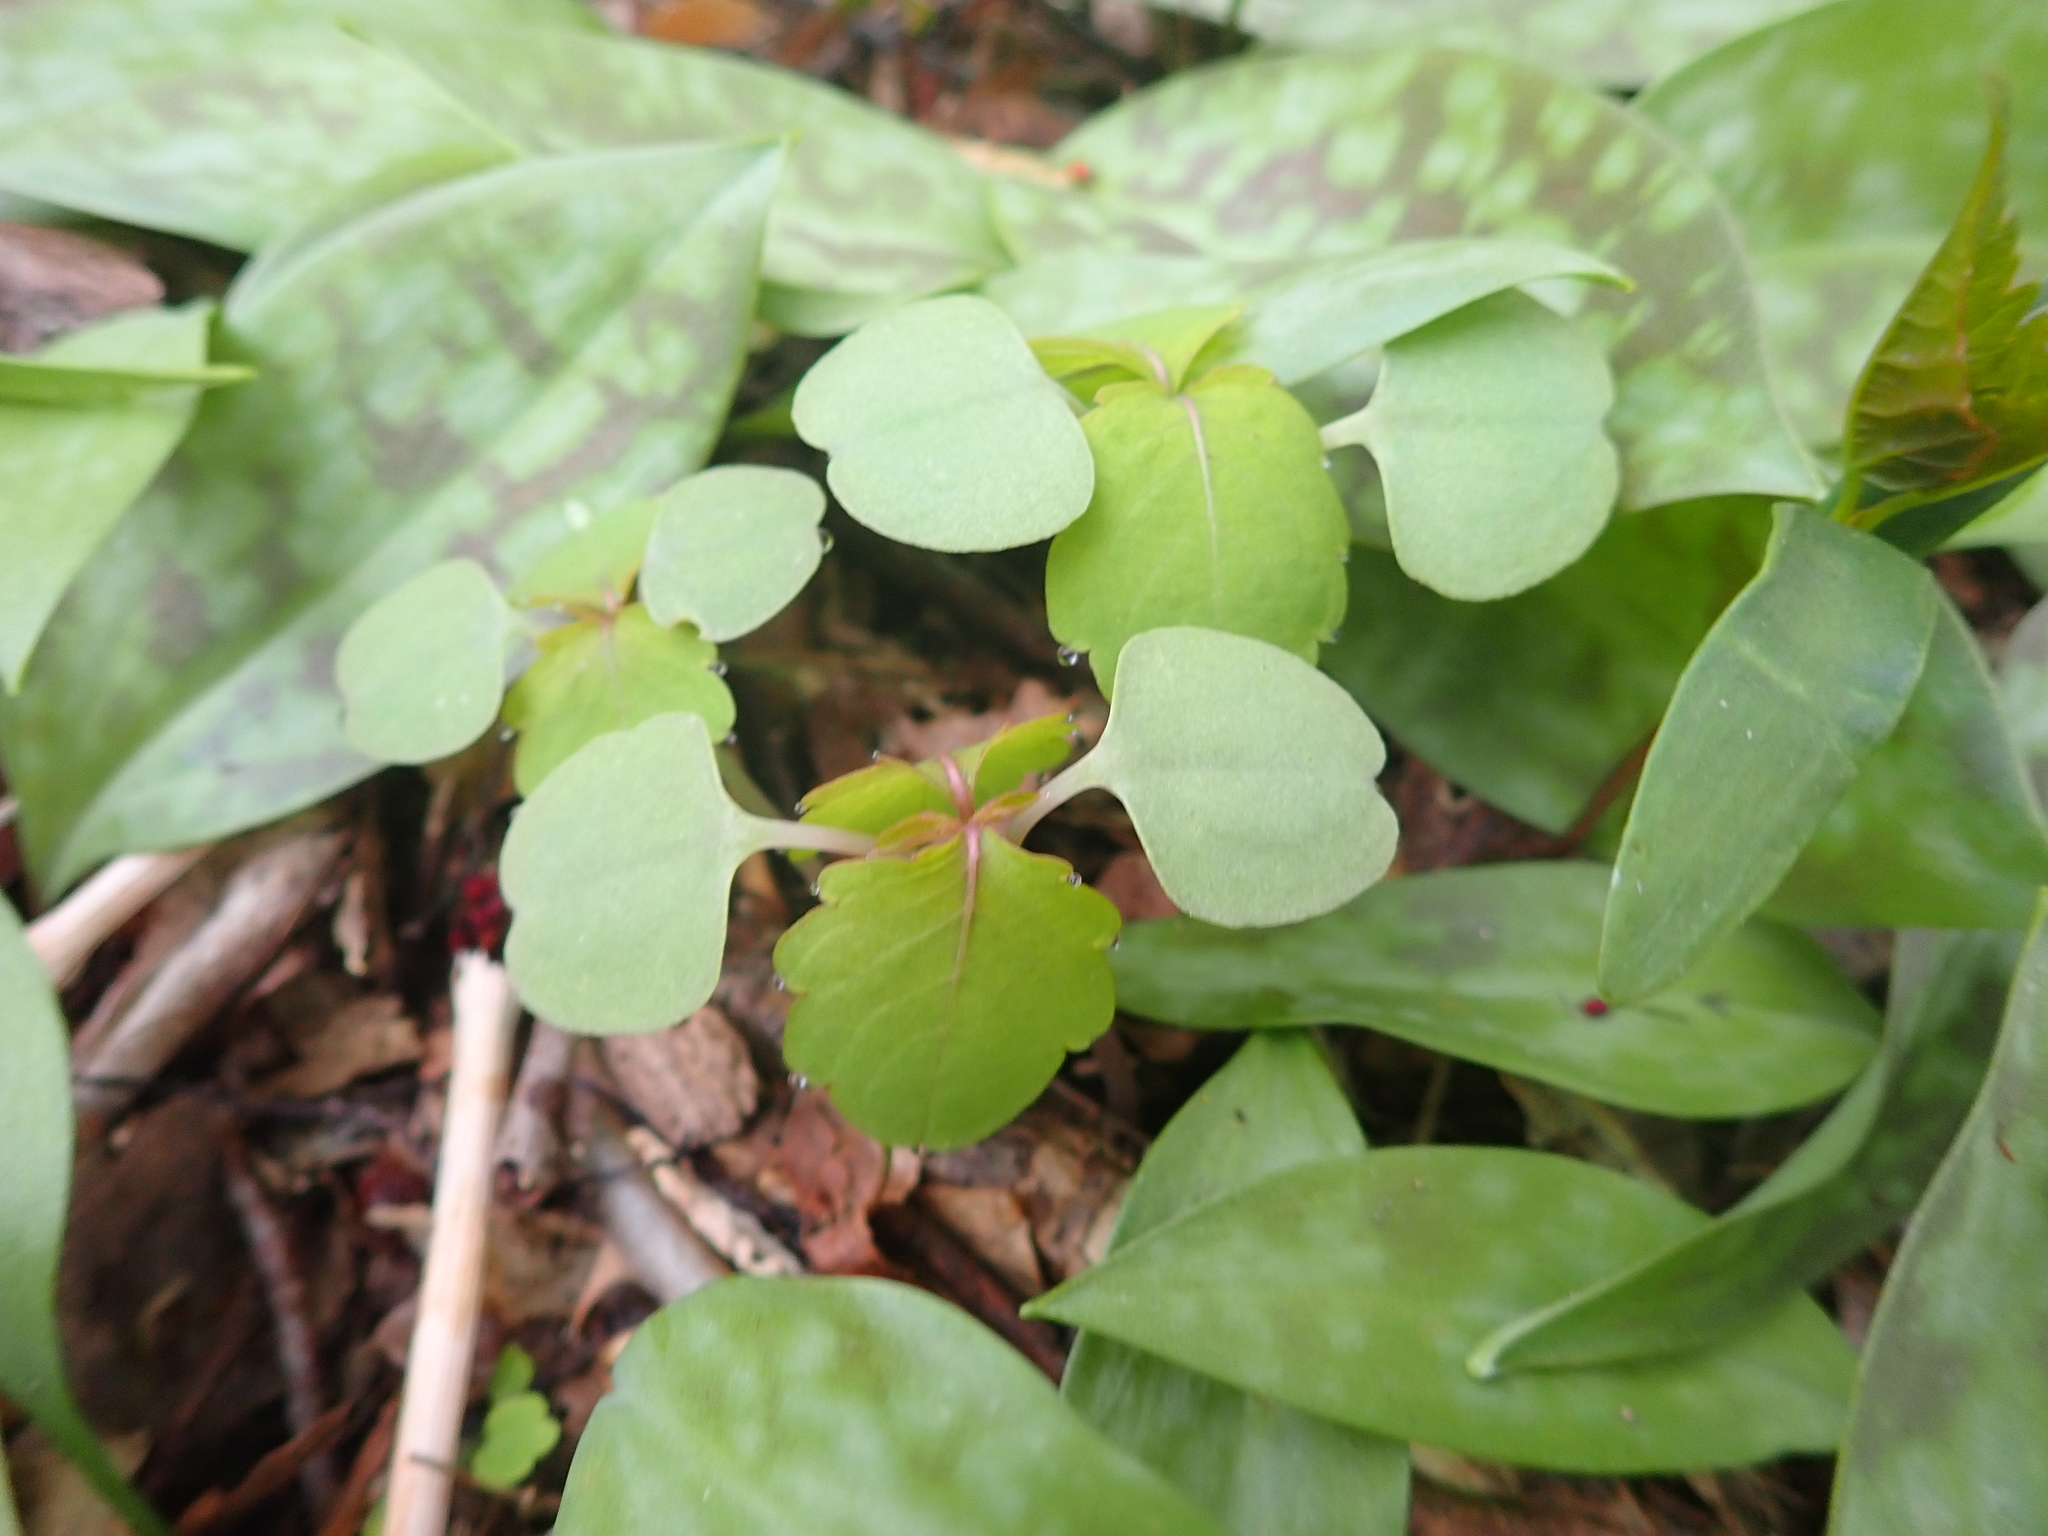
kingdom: Plantae
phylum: Tracheophyta
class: Magnoliopsida
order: Ericales
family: Balsaminaceae
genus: Impatiens
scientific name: Impatiens capensis
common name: Orange balsam
